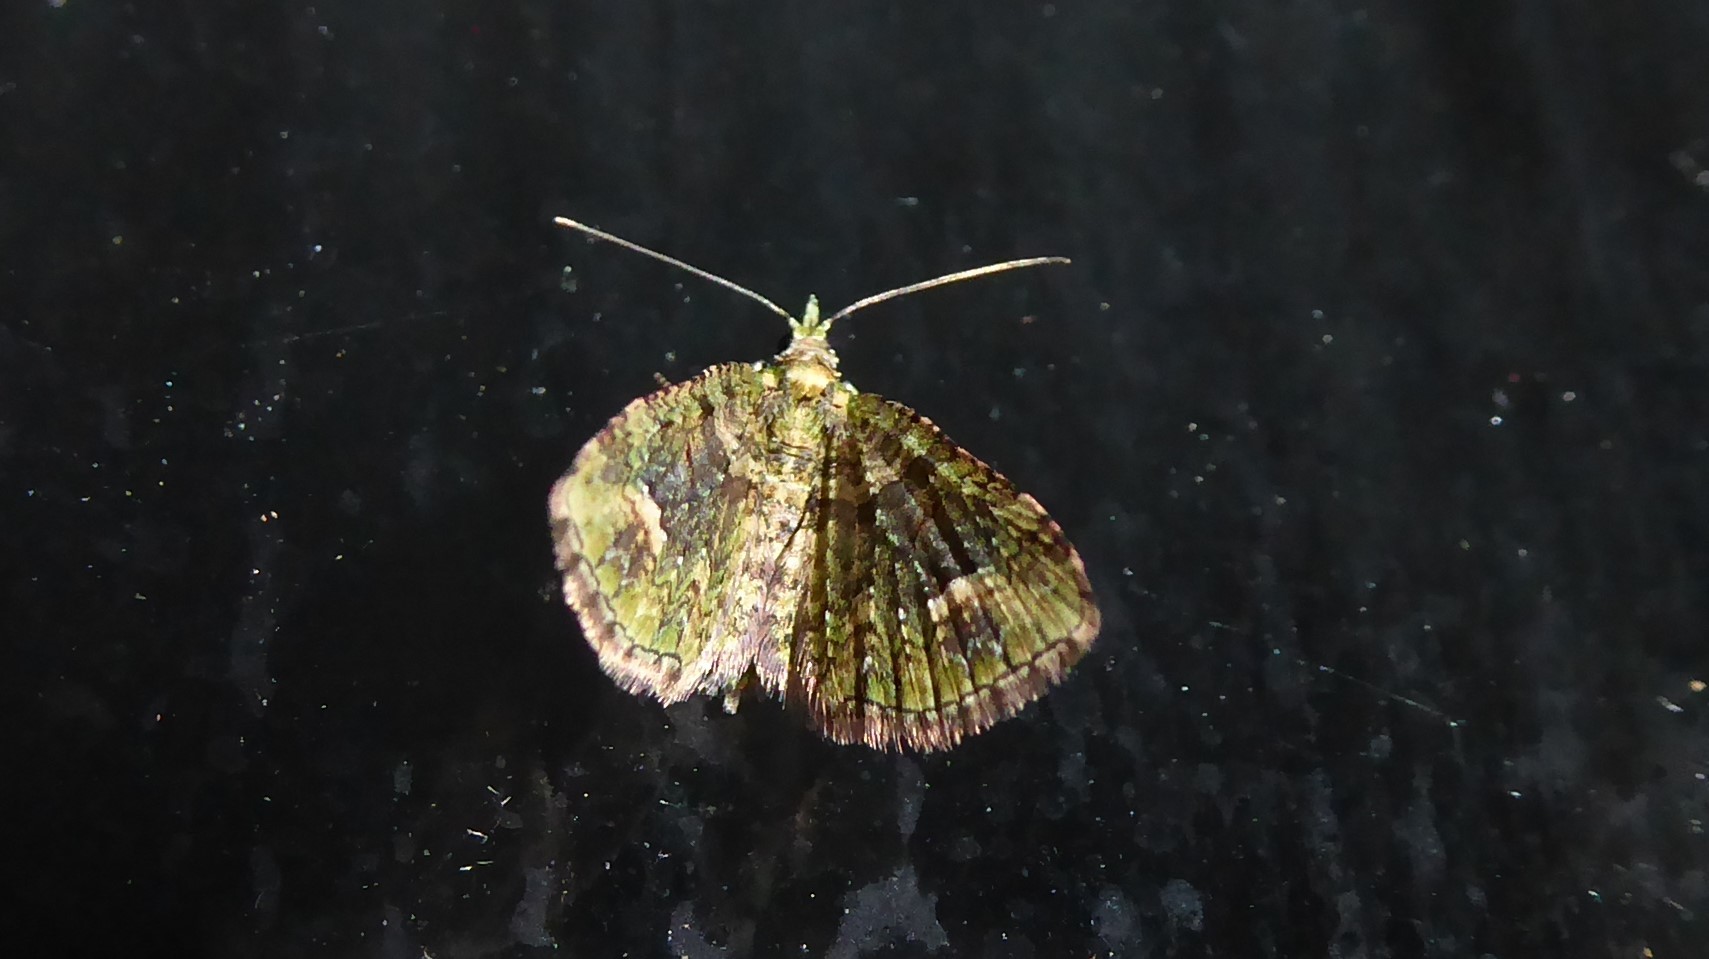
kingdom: Animalia
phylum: Arthropoda
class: Insecta
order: Lepidoptera
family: Geometridae
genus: Idaea
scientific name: Idaea mutanda
